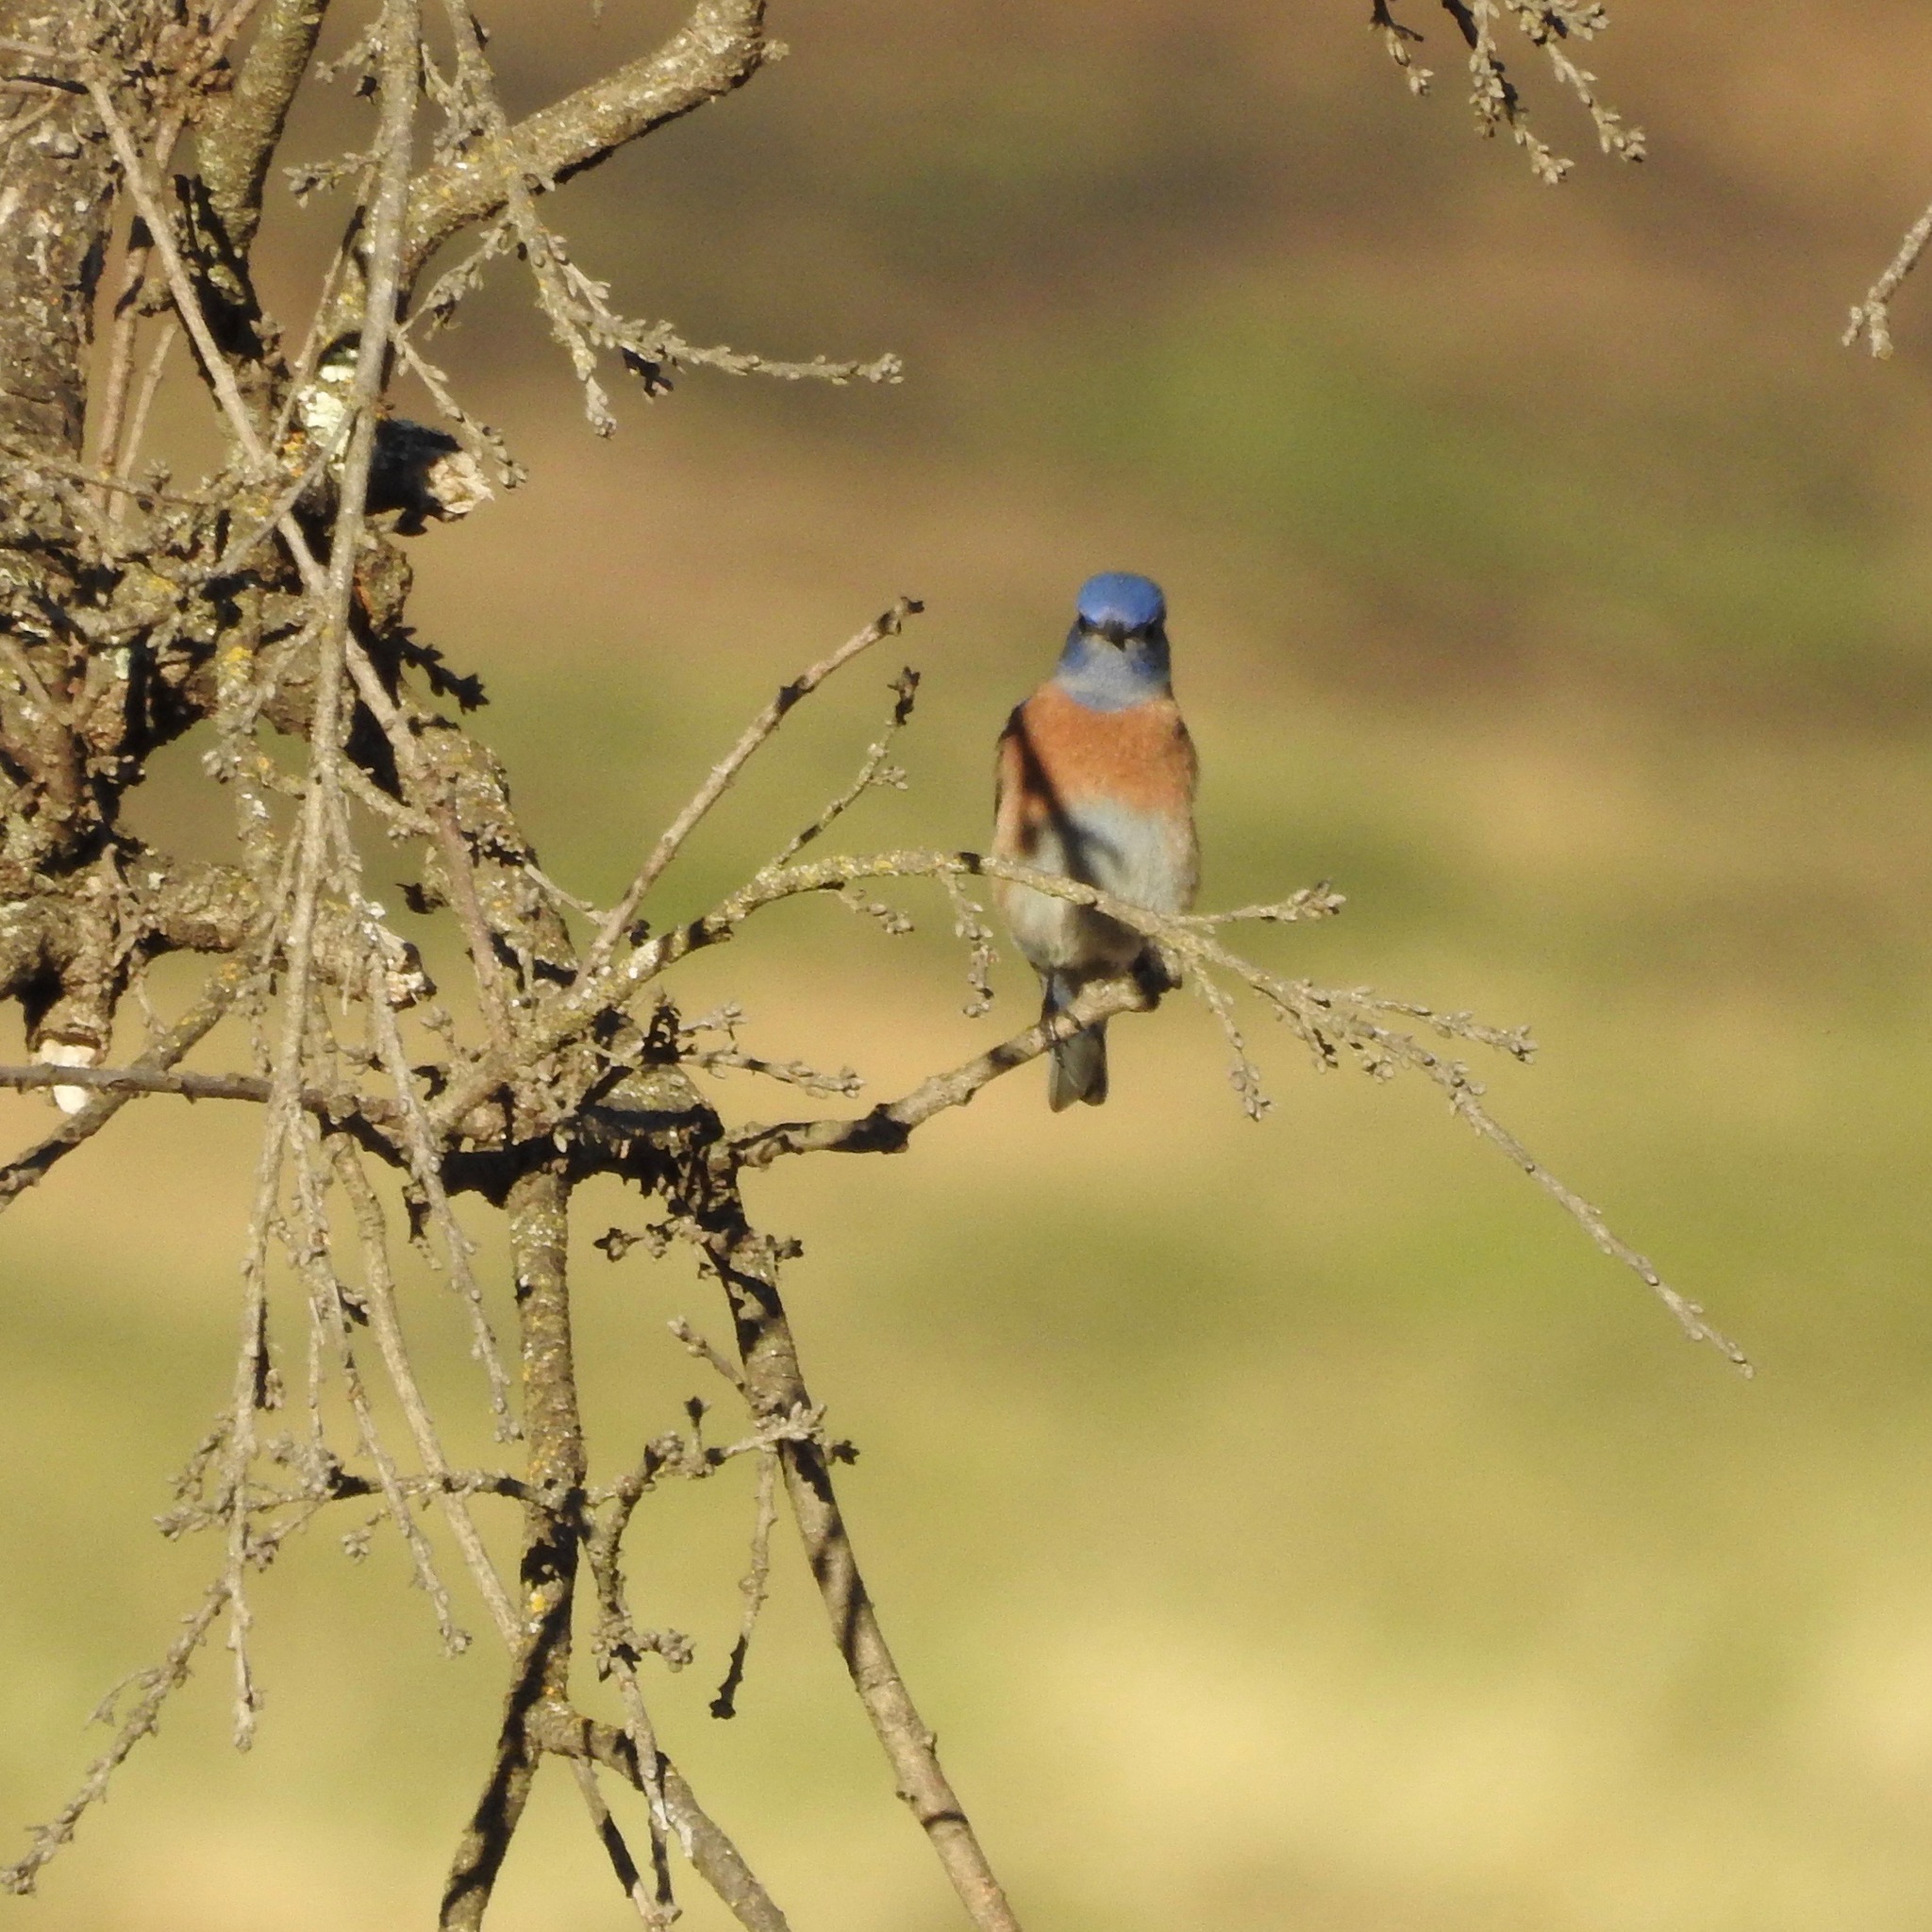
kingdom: Animalia
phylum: Chordata
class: Aves
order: Passeriformes
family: Turdidae
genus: Sialia
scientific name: Sialia mexicana
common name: Western bluebird
